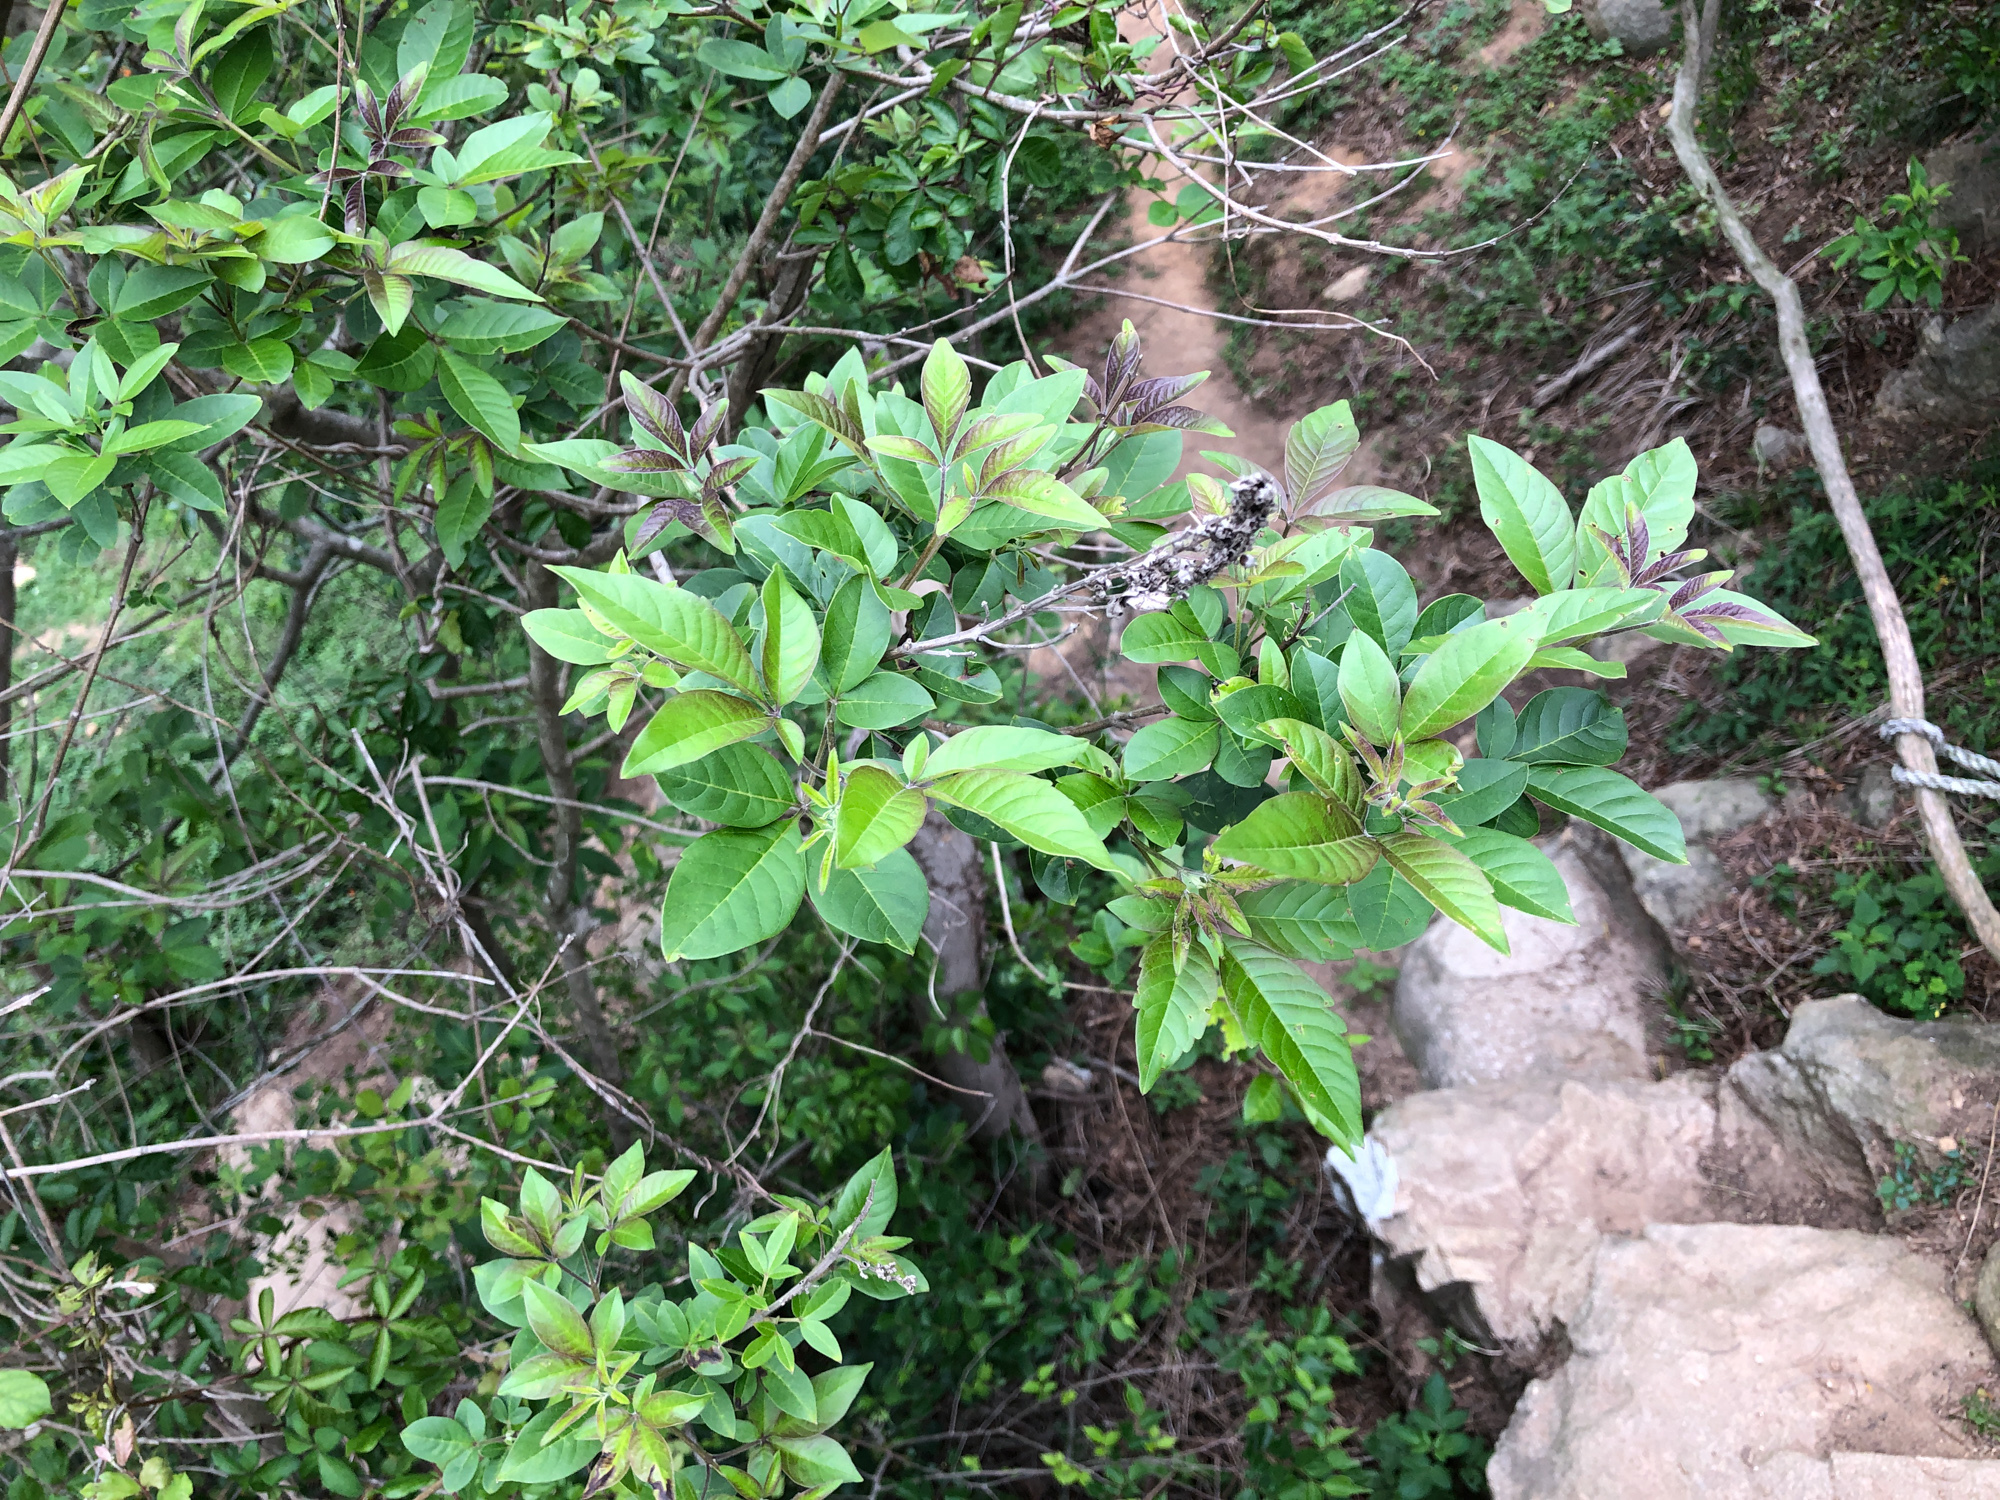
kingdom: Plantae
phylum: Tracheophyta
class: Magnoliopsida
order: Lamiales
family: Lamiaceae
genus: Vitex
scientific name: Vitex negundo
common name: Chinese chastetree
